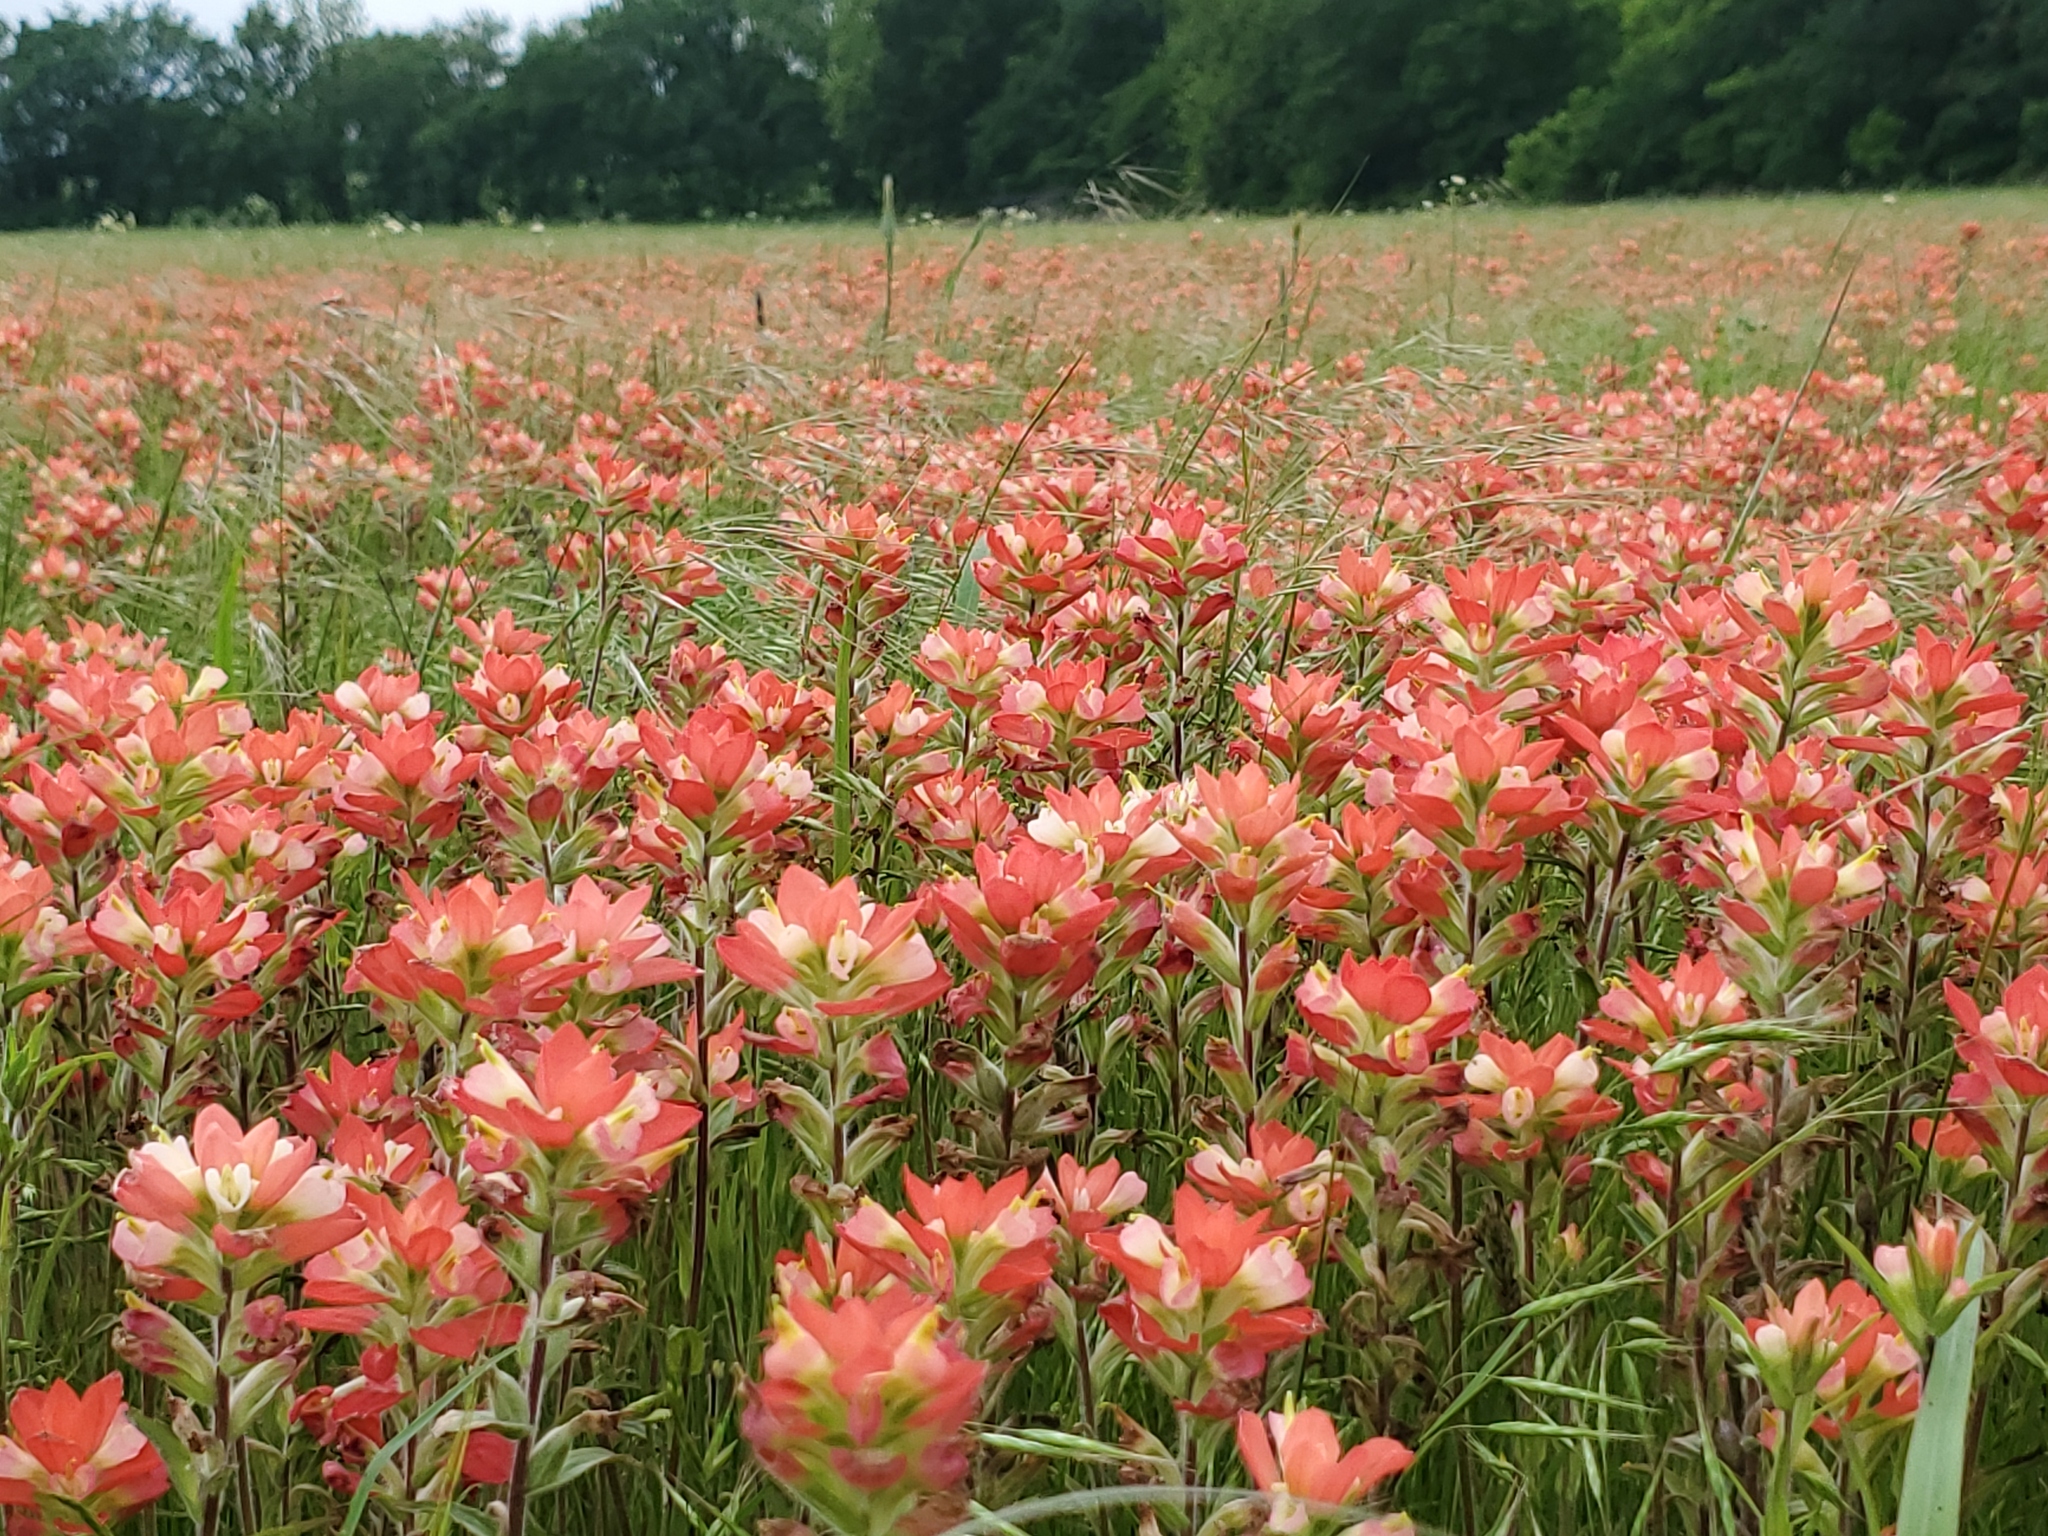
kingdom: Plantae
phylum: Tracheophyta
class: Magnoliopsida
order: Lamiales
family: Orobanchaceae
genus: Castilleja
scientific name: Castilleja indivisa
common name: Texas paintbrush
